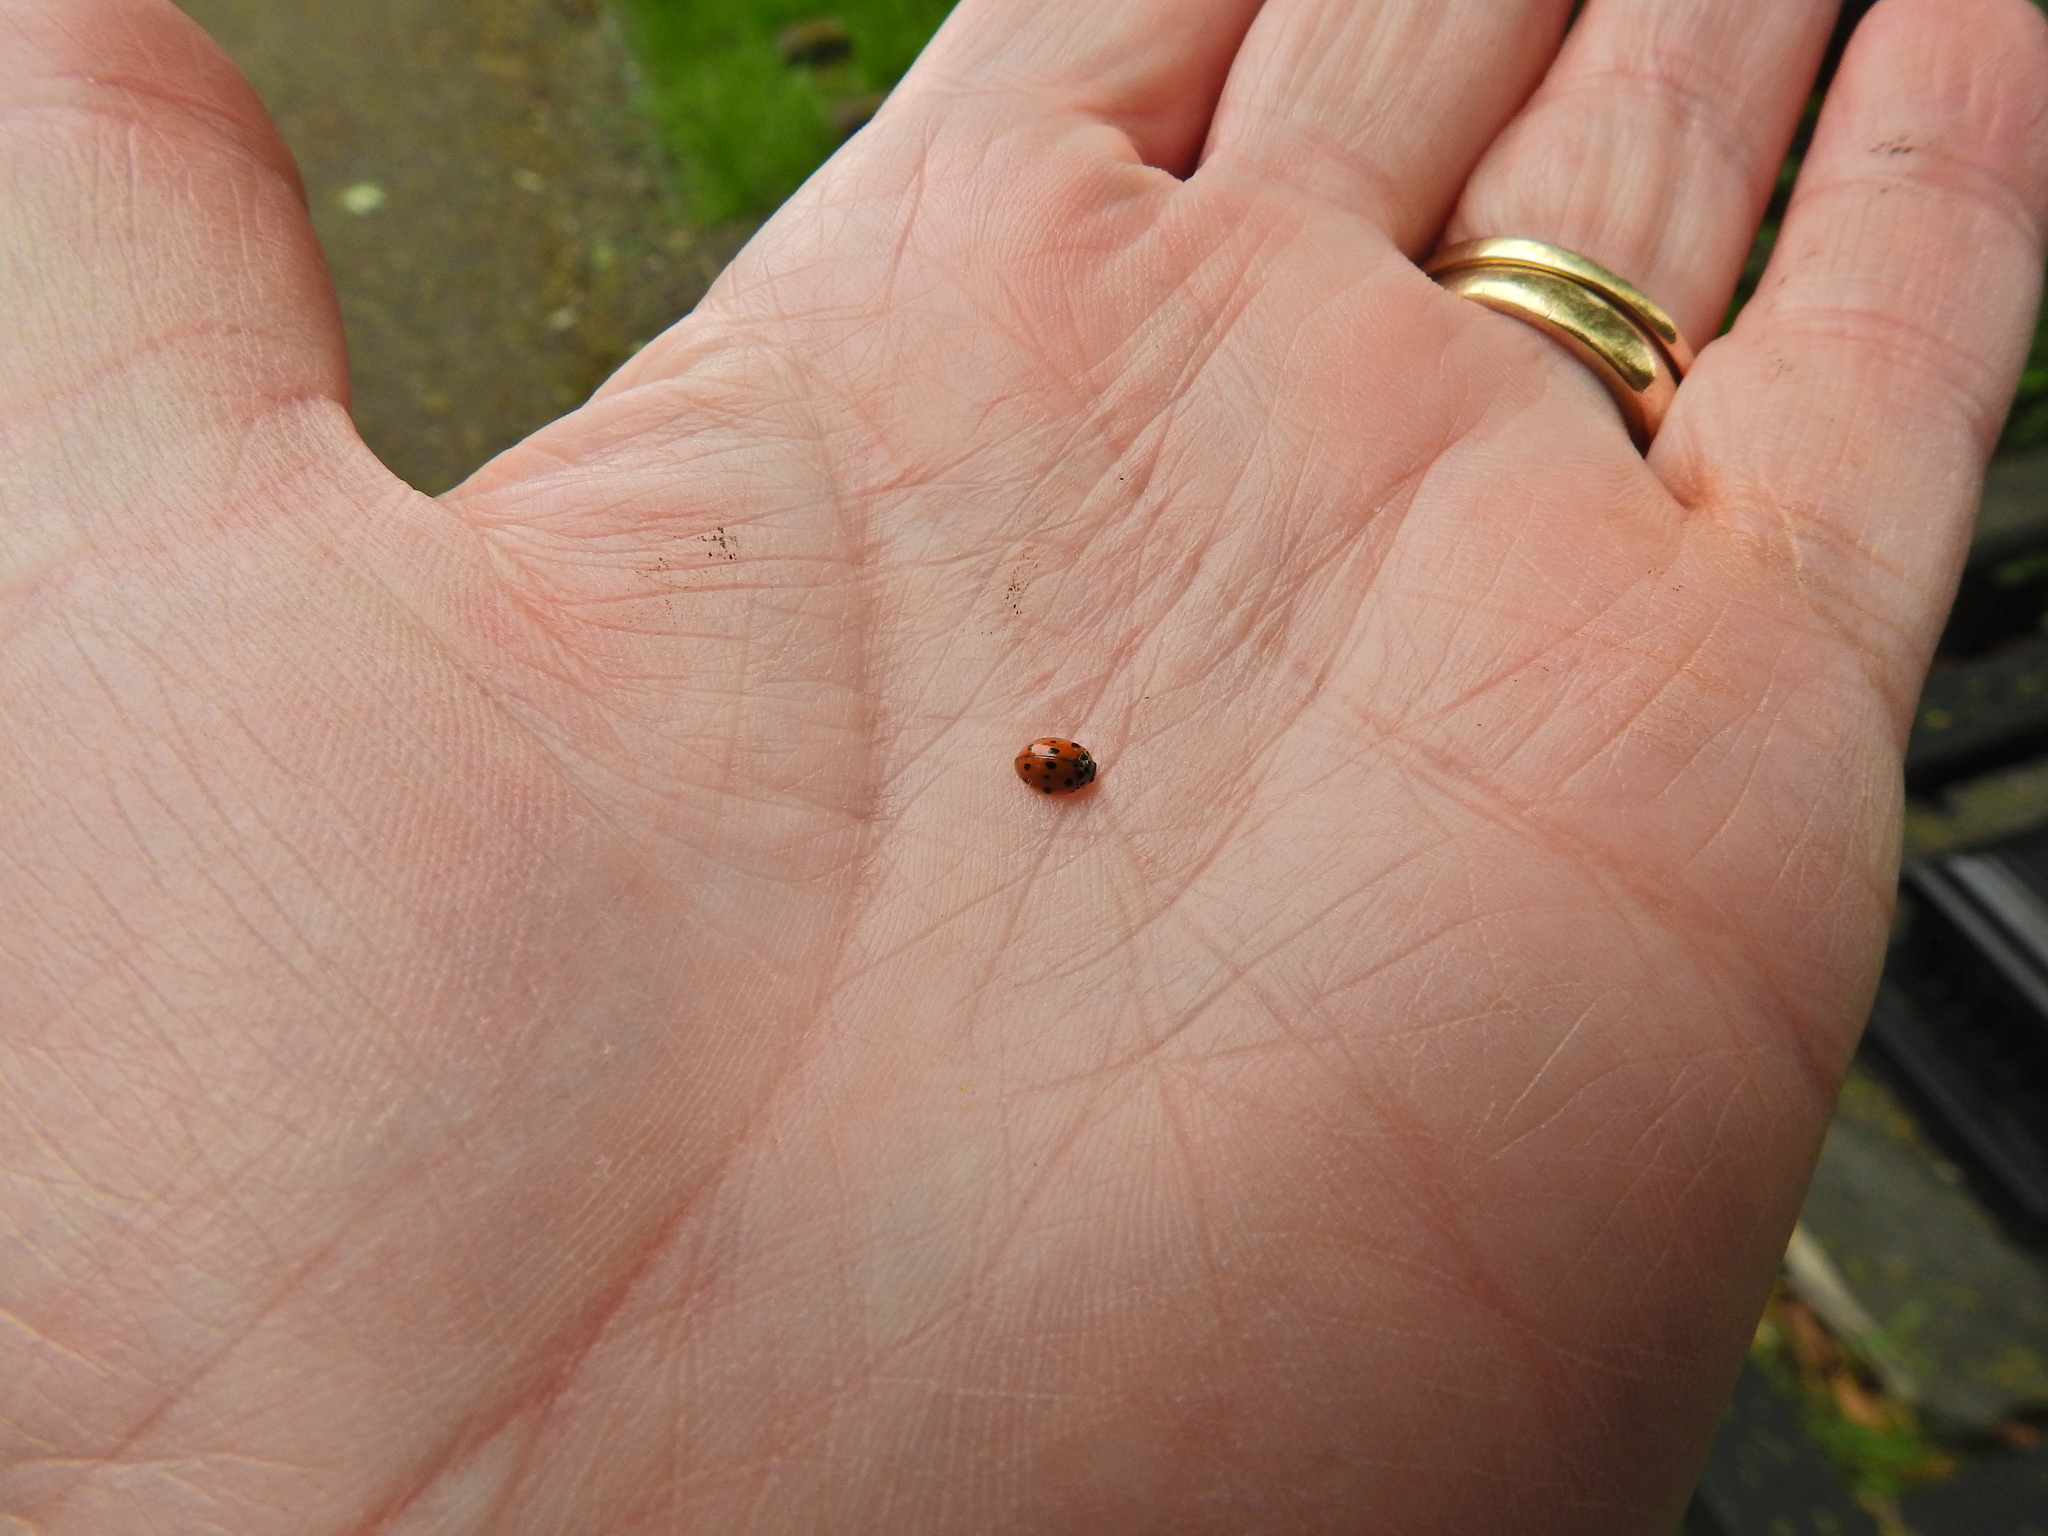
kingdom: Animalia
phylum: Arthropoda
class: Insecta
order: Coleoptera
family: Coccinellidae
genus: Adalia
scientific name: Adalia decempunctata
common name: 10-spot ladybird
